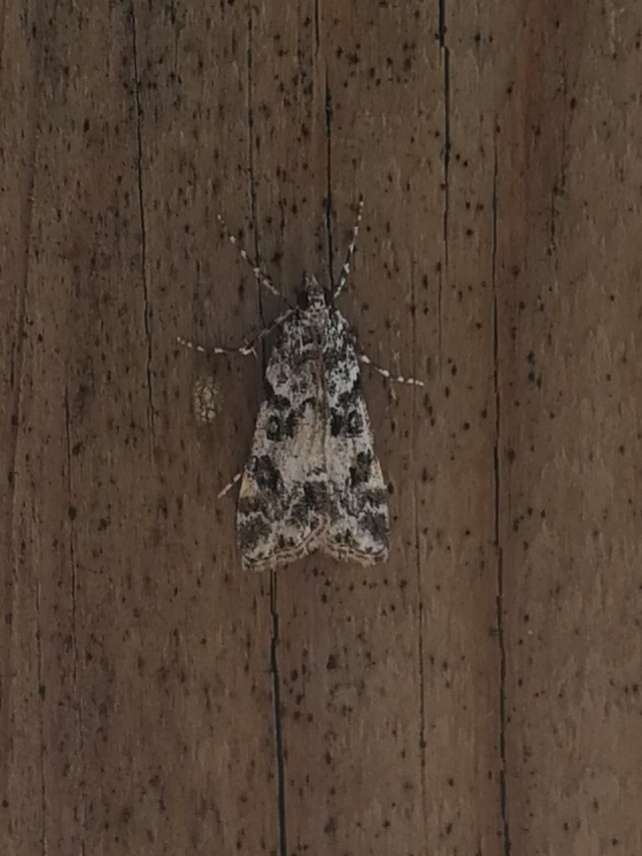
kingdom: Animalia
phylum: Arthropoda
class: Insecta
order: Lepidoptera
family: Crambidae
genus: Eudonia
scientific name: Eudonia phaeoleuca
